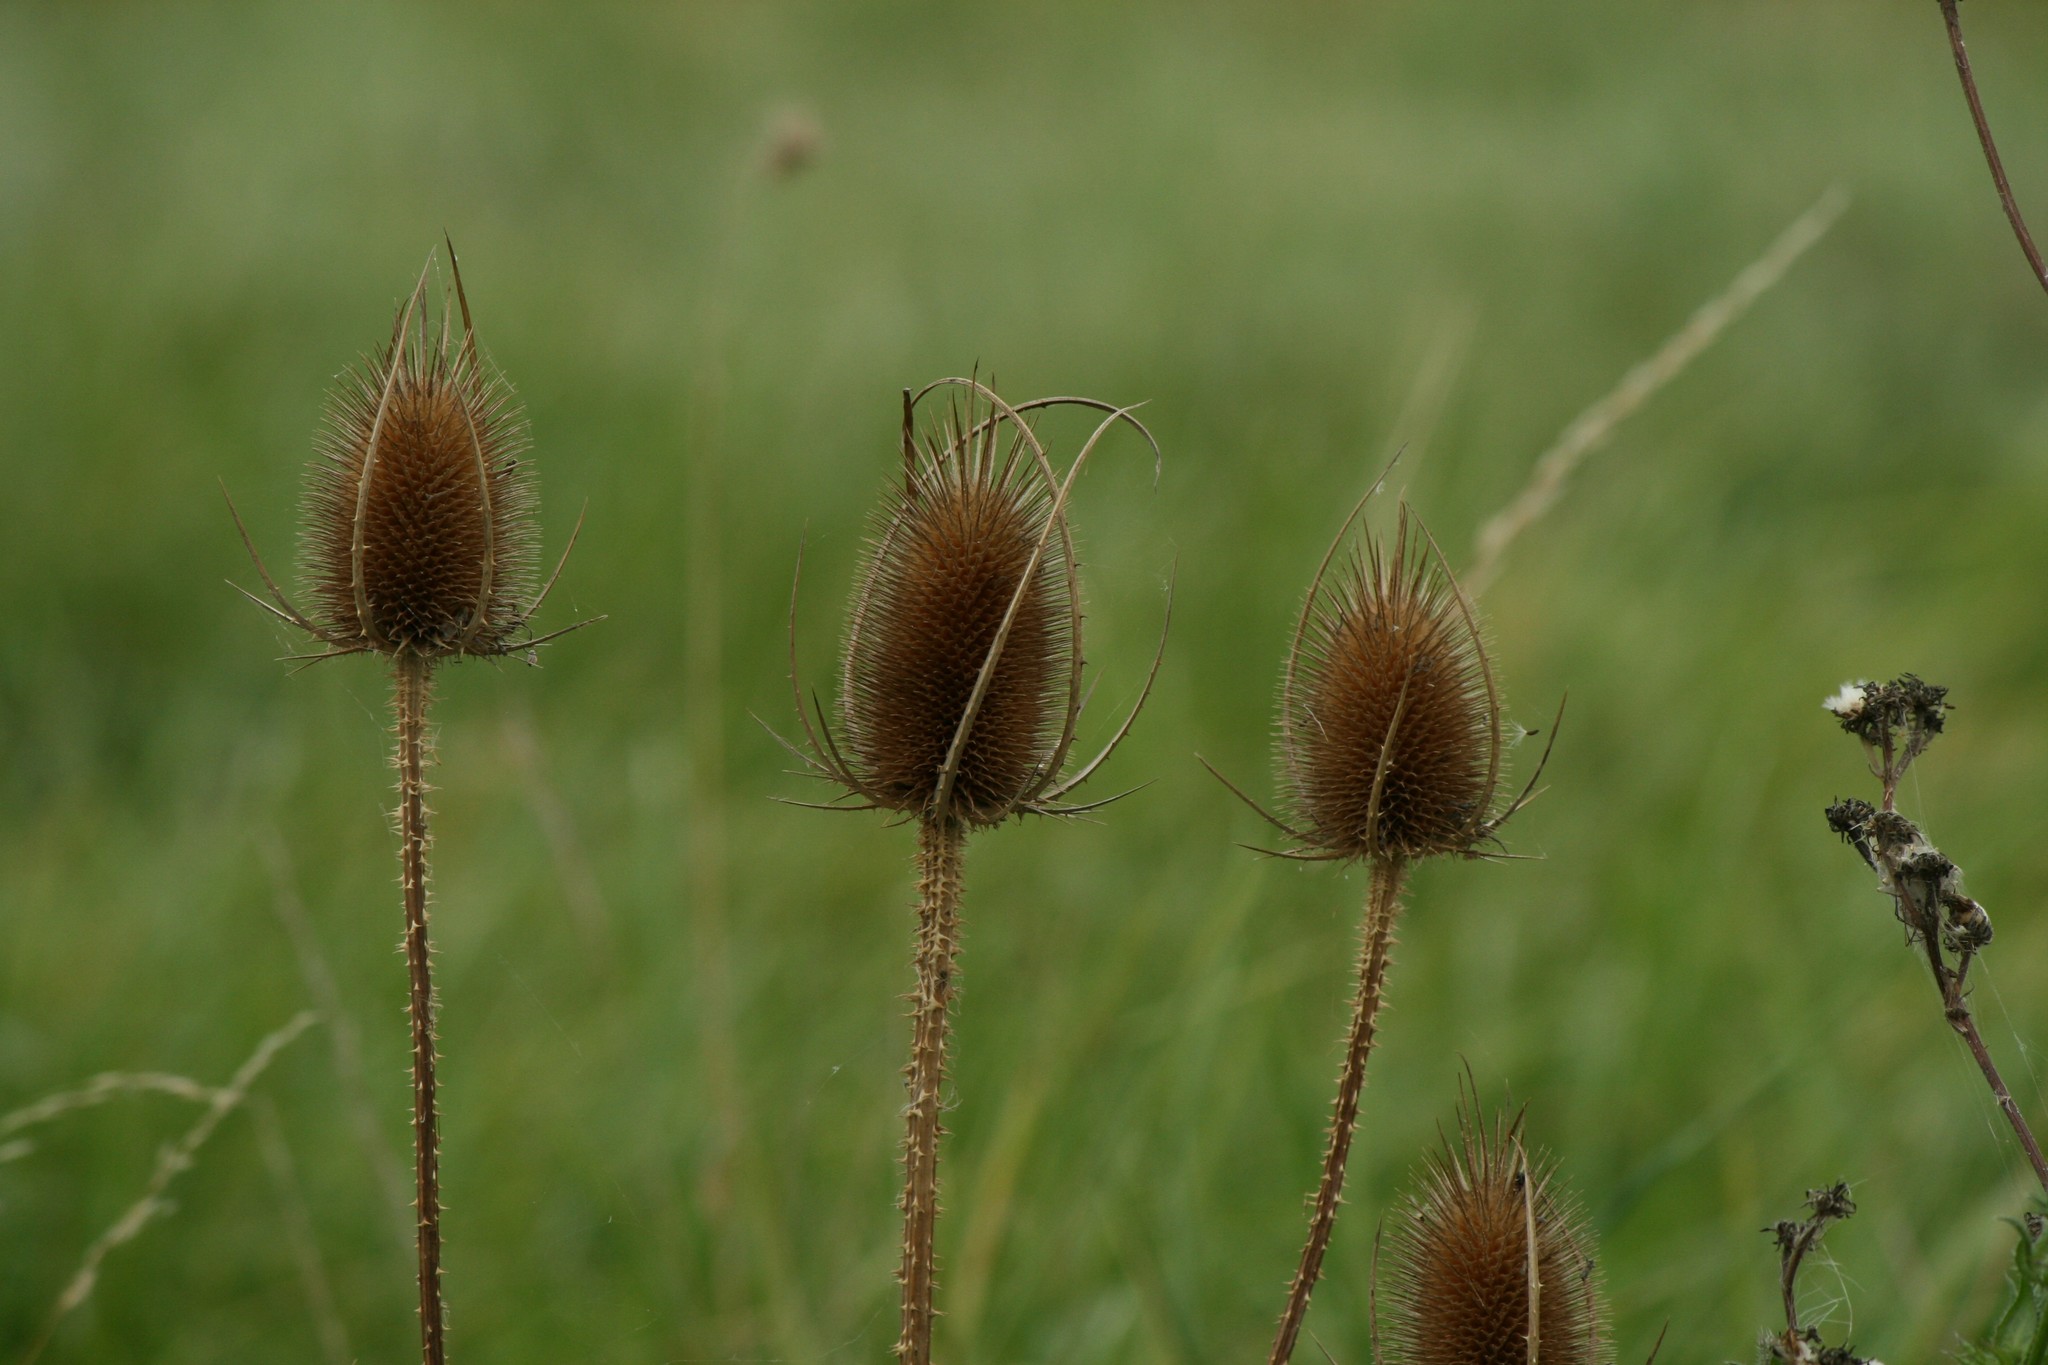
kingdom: Plantae
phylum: Tracheophyta
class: Magnoliopsida
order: Dipsacales
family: Caprifoliaceae
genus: Dipsacus
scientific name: Dipsacus fullonum
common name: Teasel
